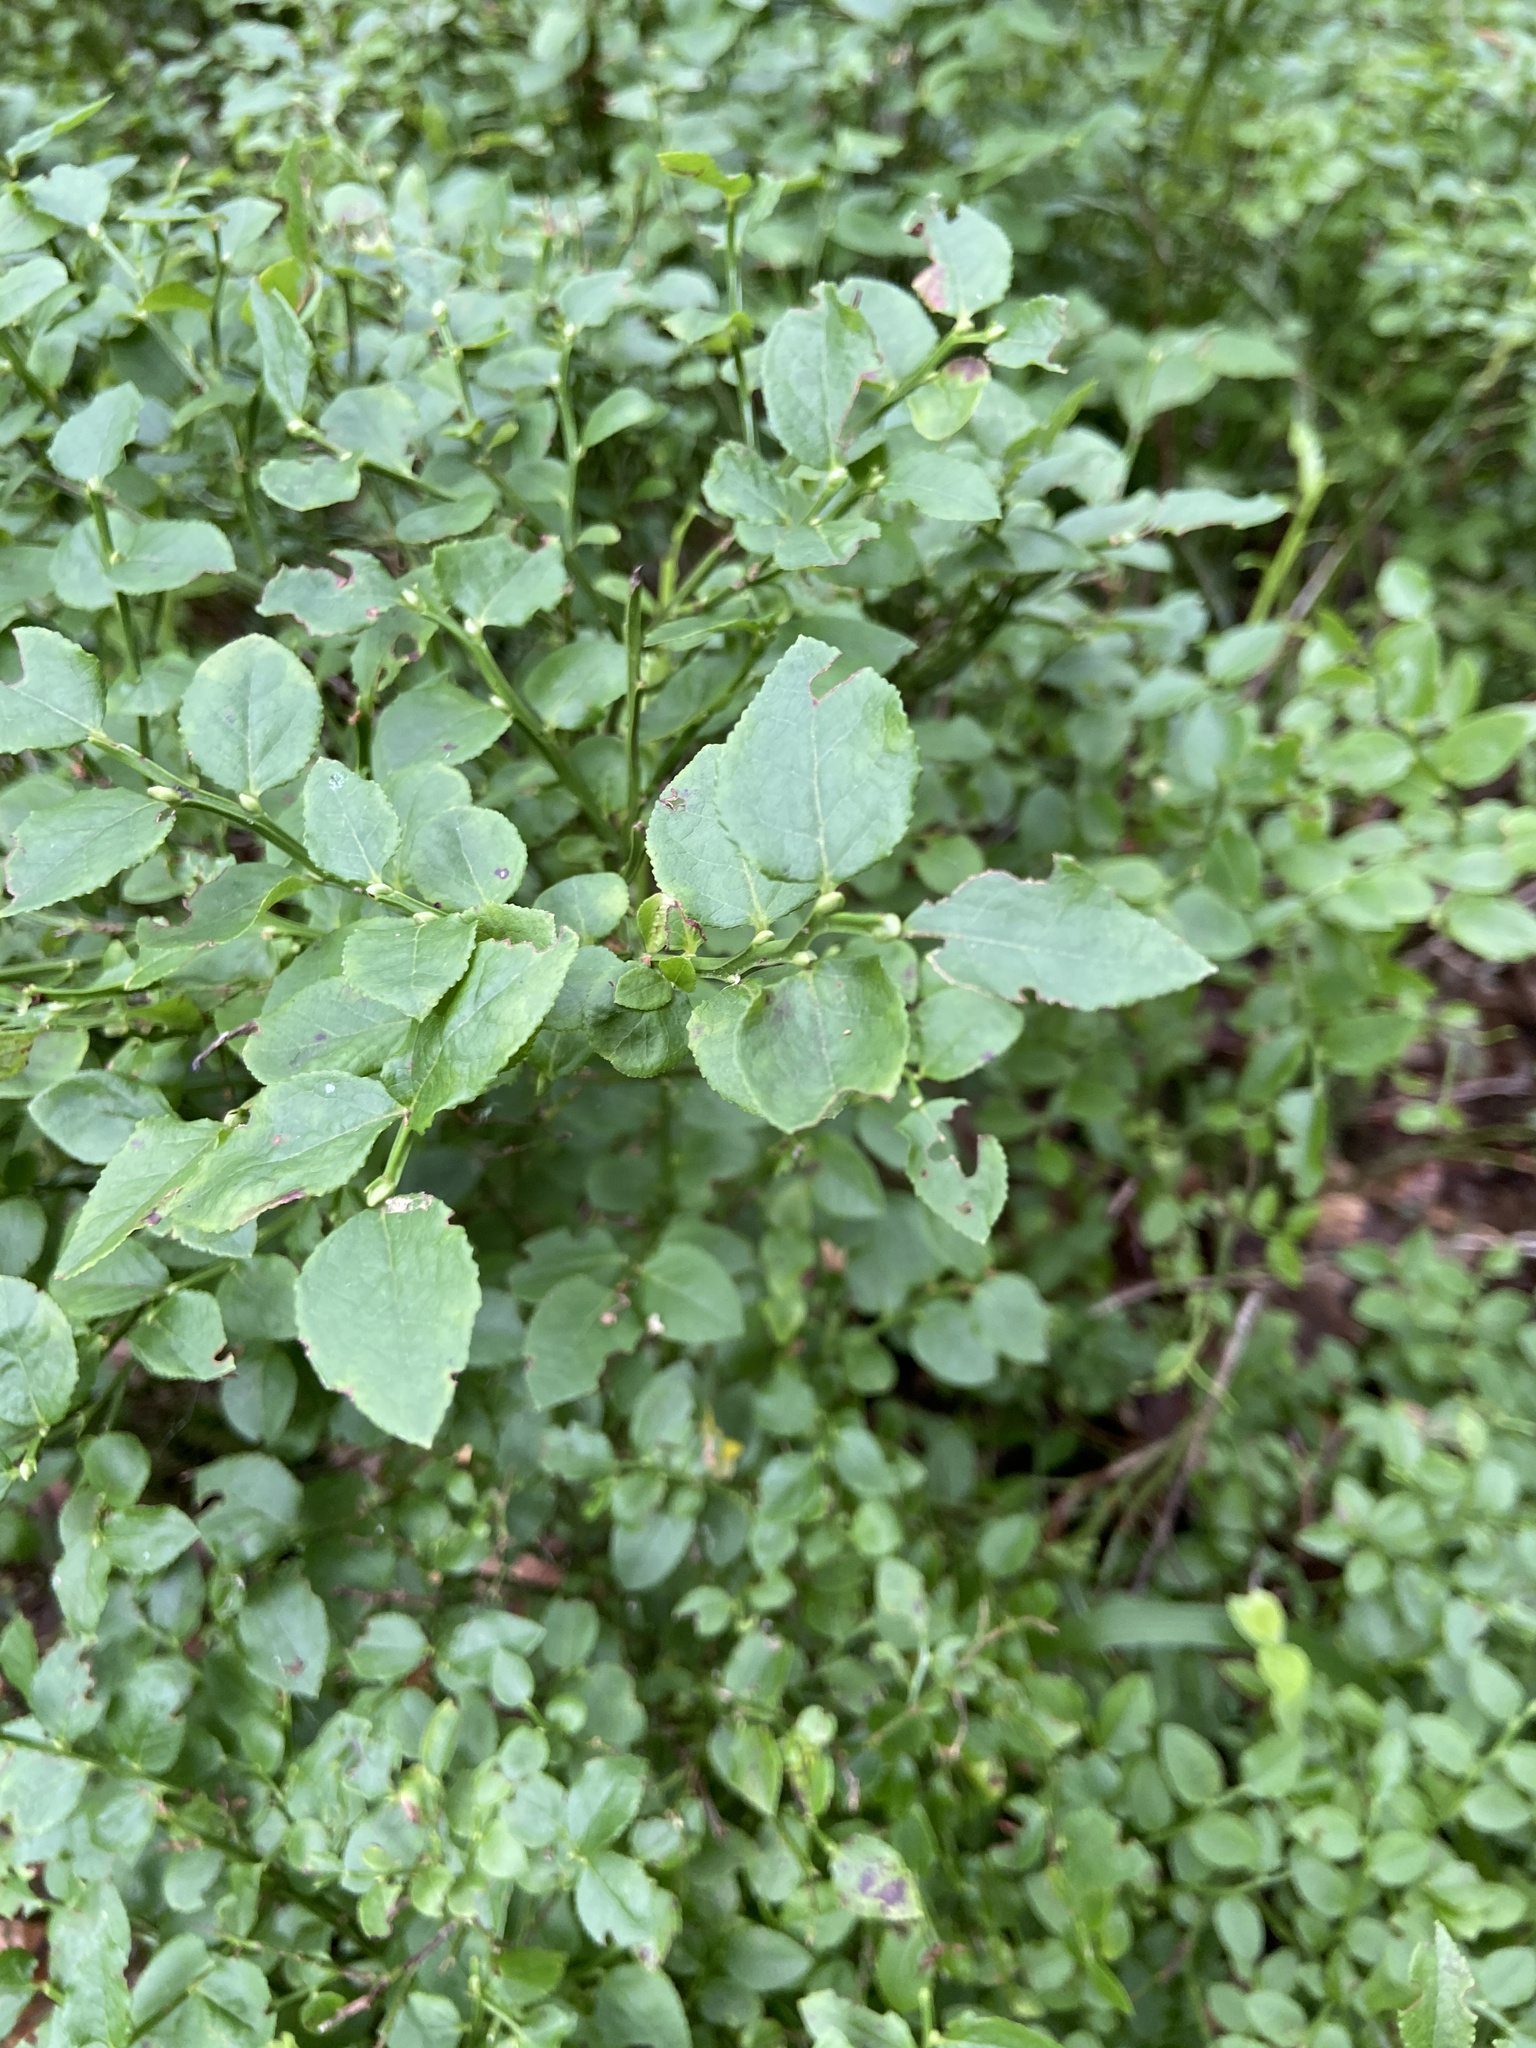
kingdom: Plantae
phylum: Tracheophyta
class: Magnoliopsida
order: Ericales
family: Ericaceae
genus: Vaccinium
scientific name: Vaccinium myrtillus
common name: Bilberry
